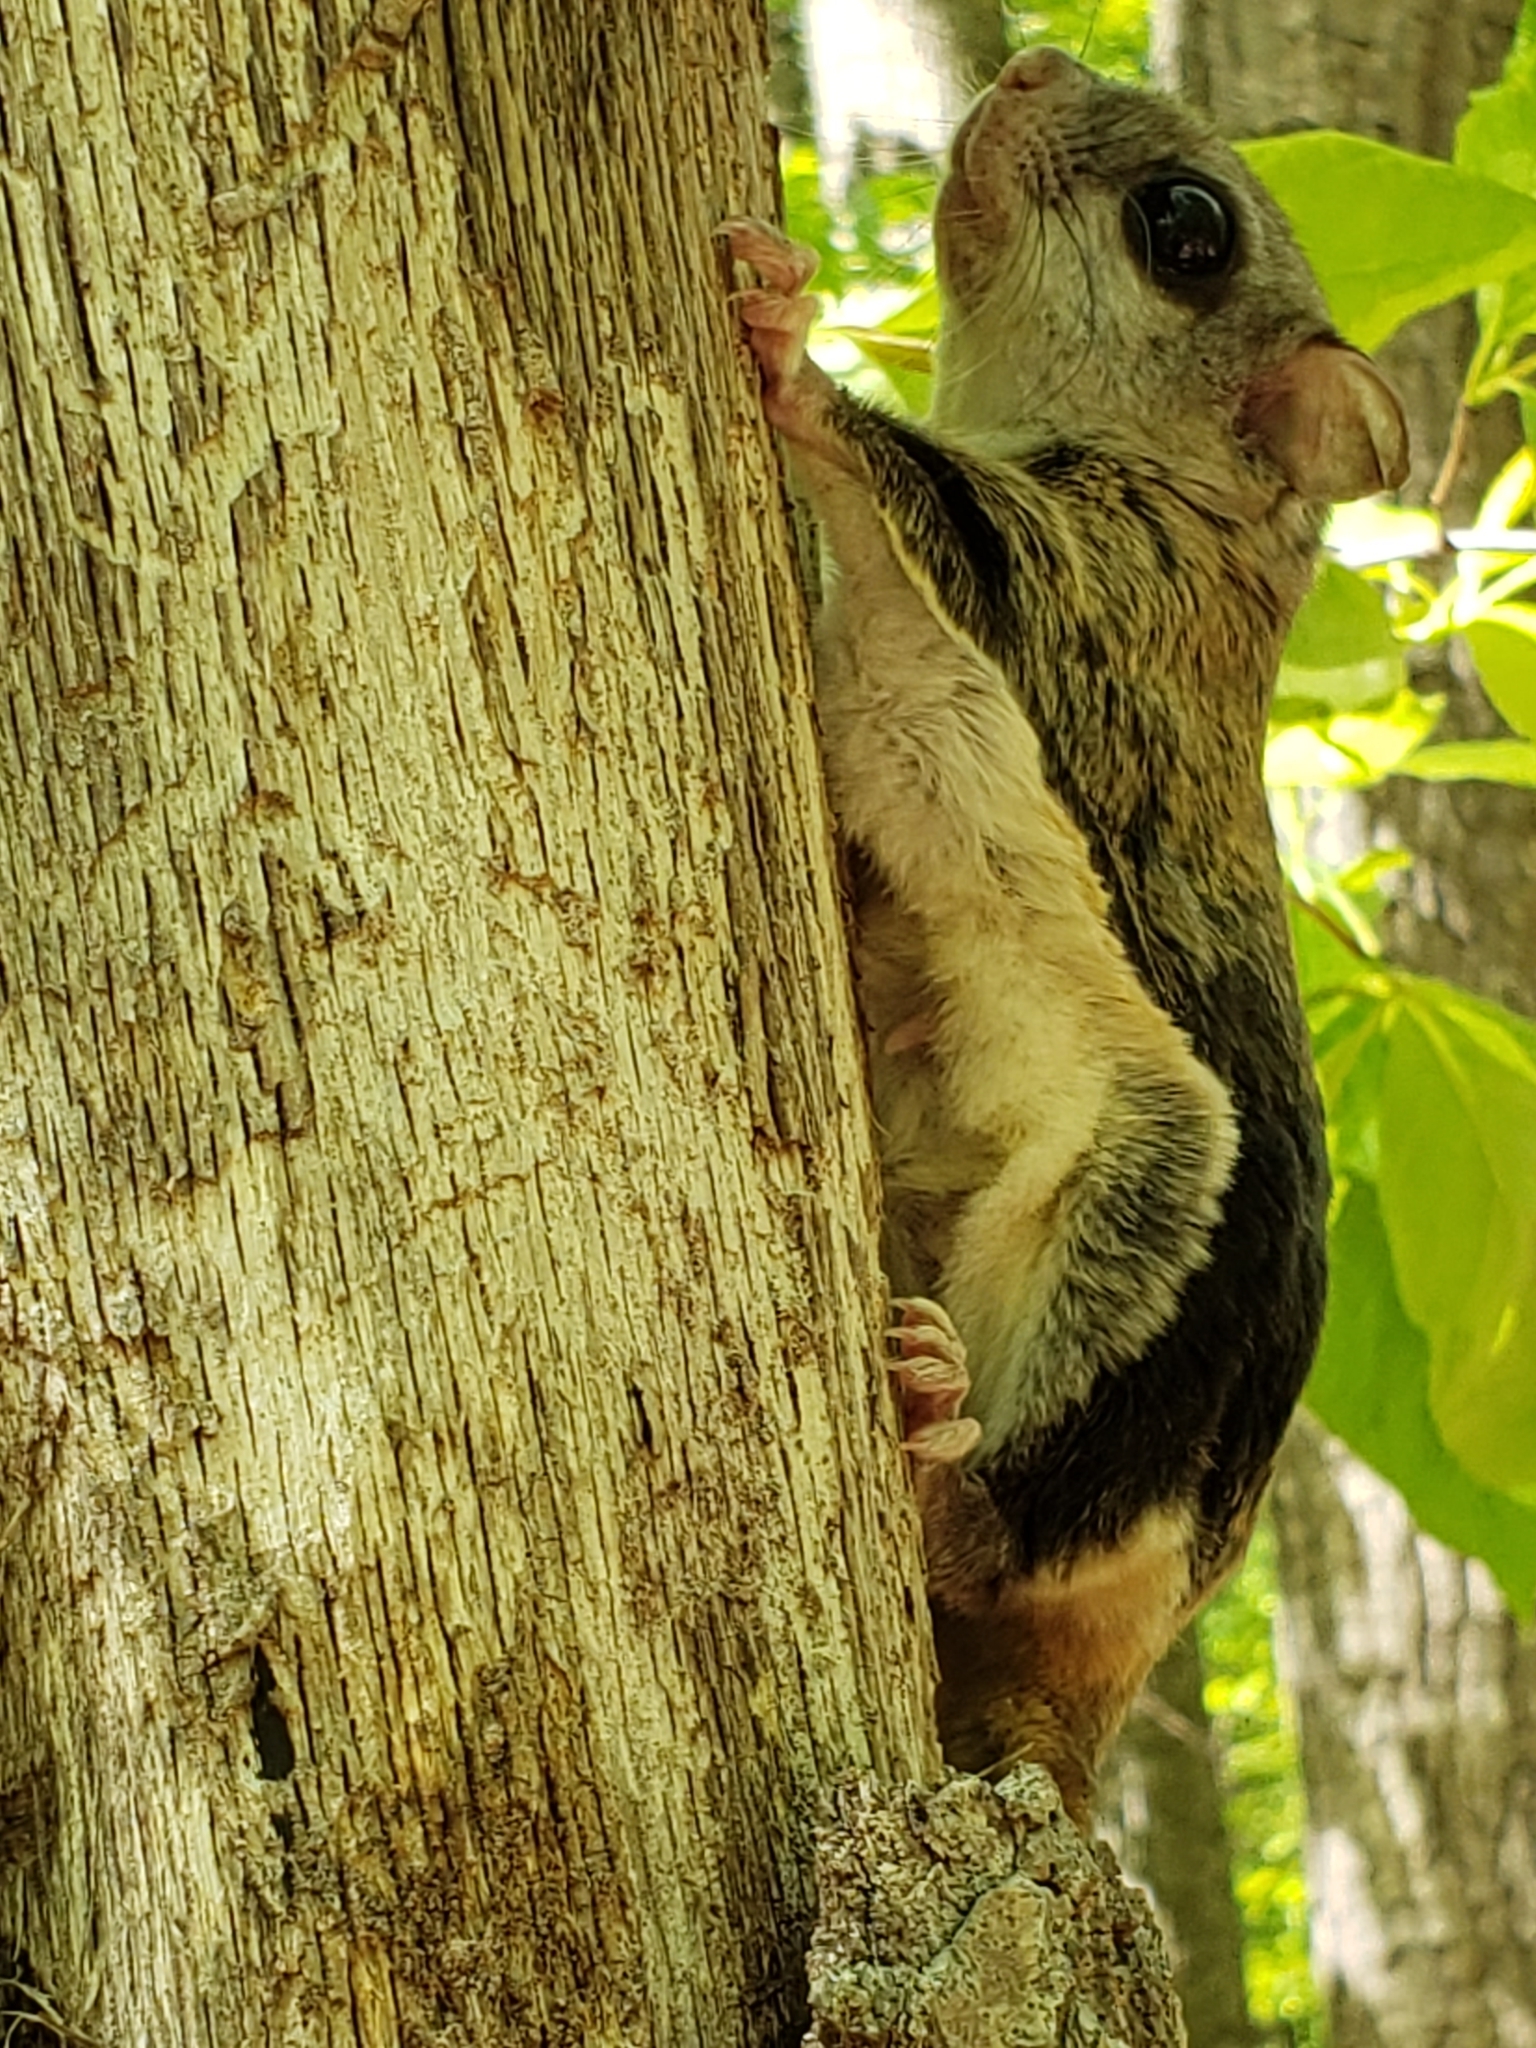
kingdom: Animalia
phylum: Chordata
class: Mammalia
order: Rodentia
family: Sciuridae
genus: Glaucomys
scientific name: Glaucomys volans
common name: Southern flying squirrel
